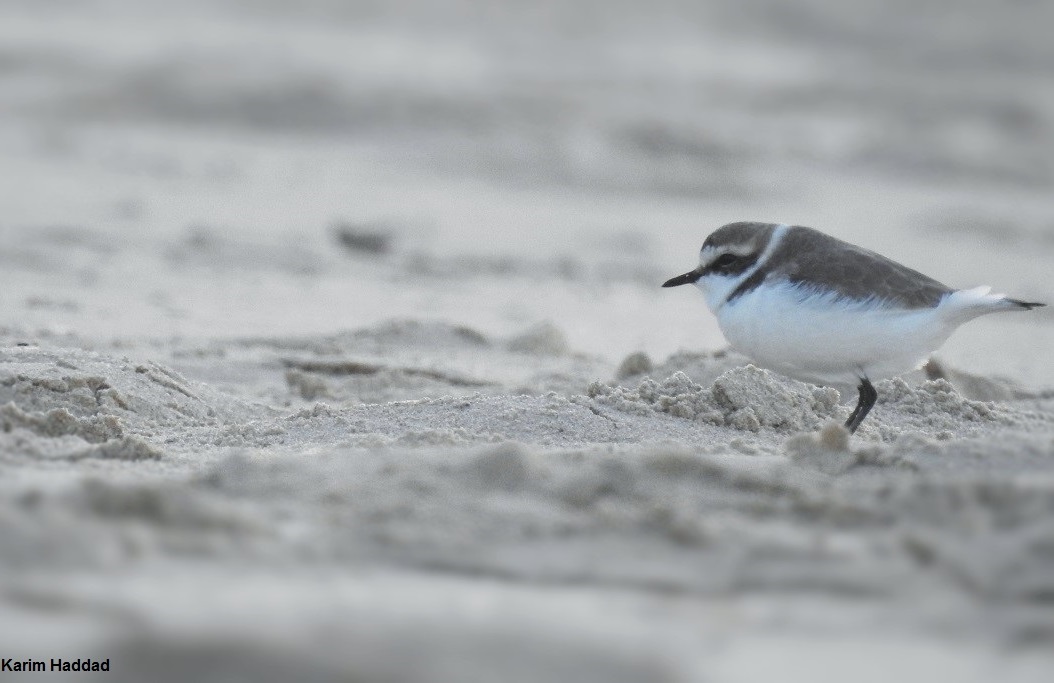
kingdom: Animalia
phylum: Chordata
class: Aves
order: Charadriiformes
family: Charadriidae
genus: Charadrius
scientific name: Charadrius alexandrinus
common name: Kentish plover
